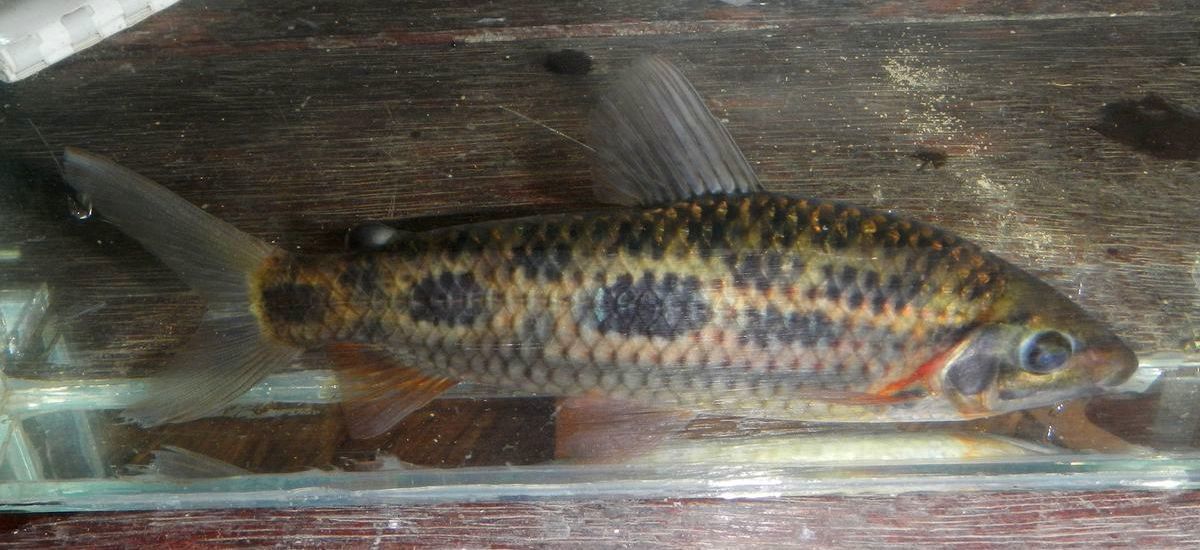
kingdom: Animalia
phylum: Chordata
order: Characiformes
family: Anostomidae
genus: Leporinus
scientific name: Leporinus nijsseni
